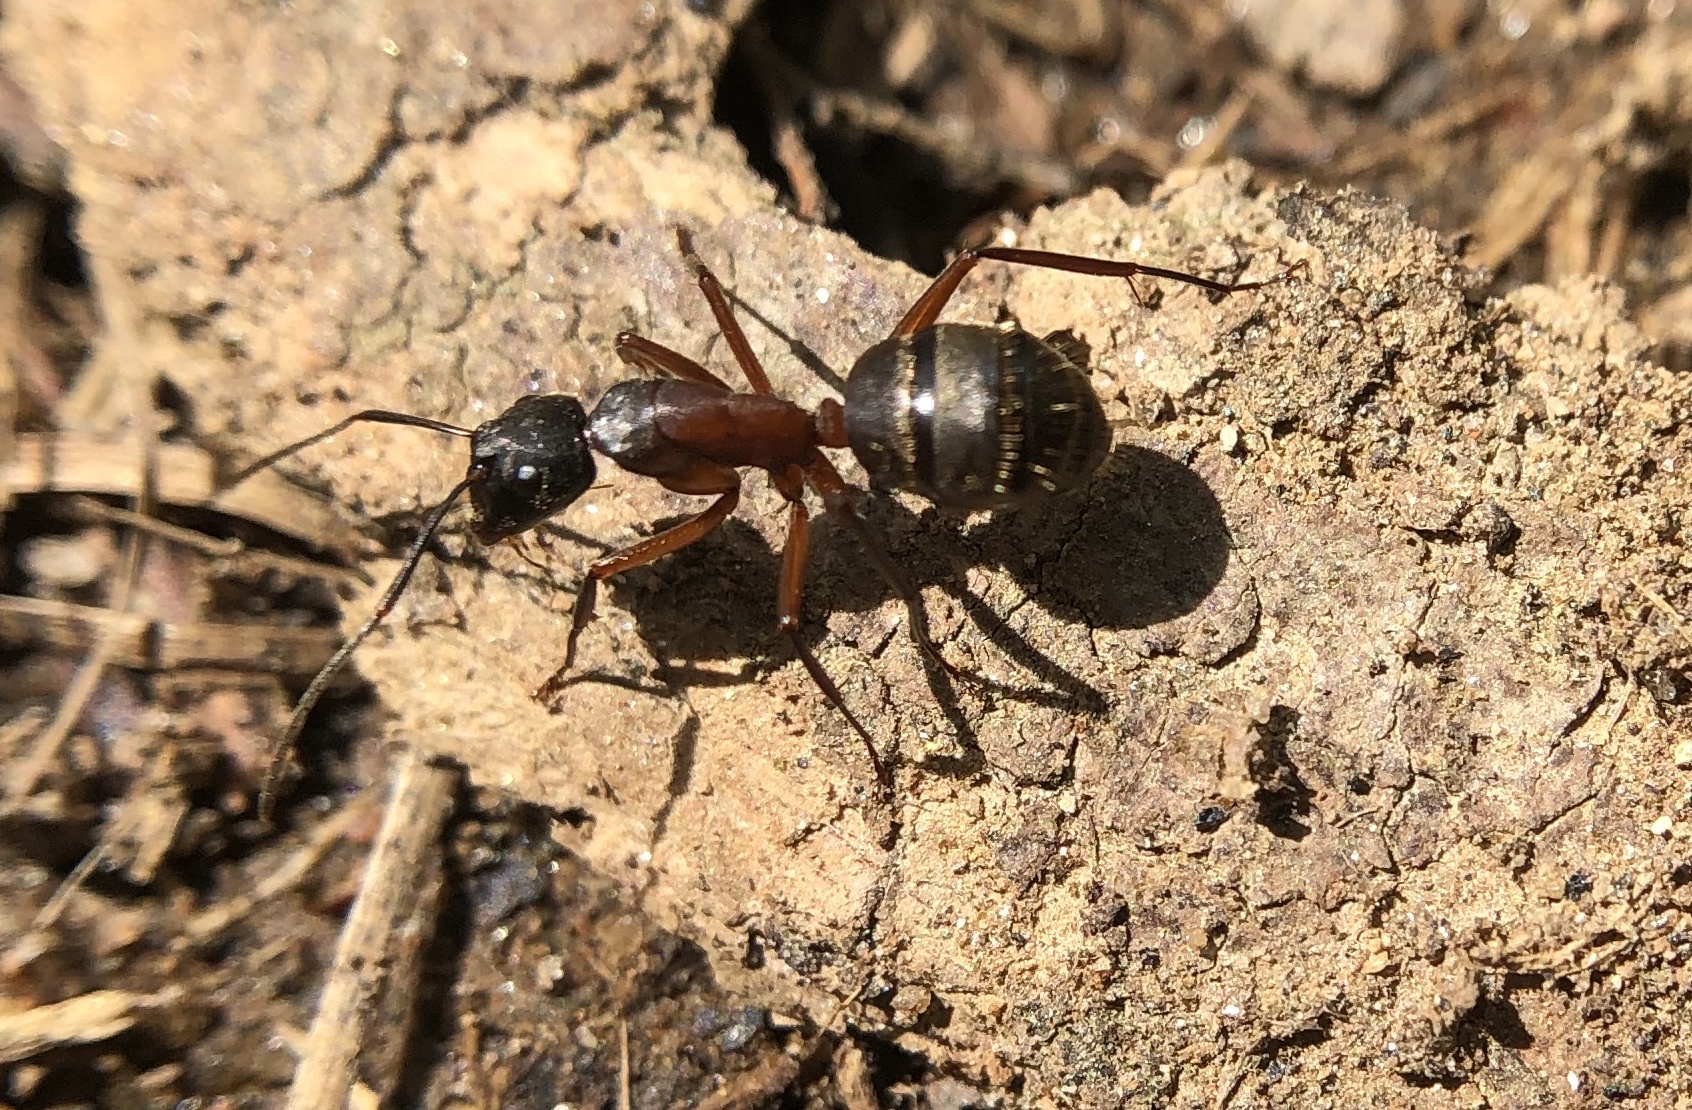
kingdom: Animalia
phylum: Arthropoda
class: Insecta
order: Hymenoptera
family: Formicidae
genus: Camponotus
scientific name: Camponotus chromaiodes
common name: Red carpenter ant
